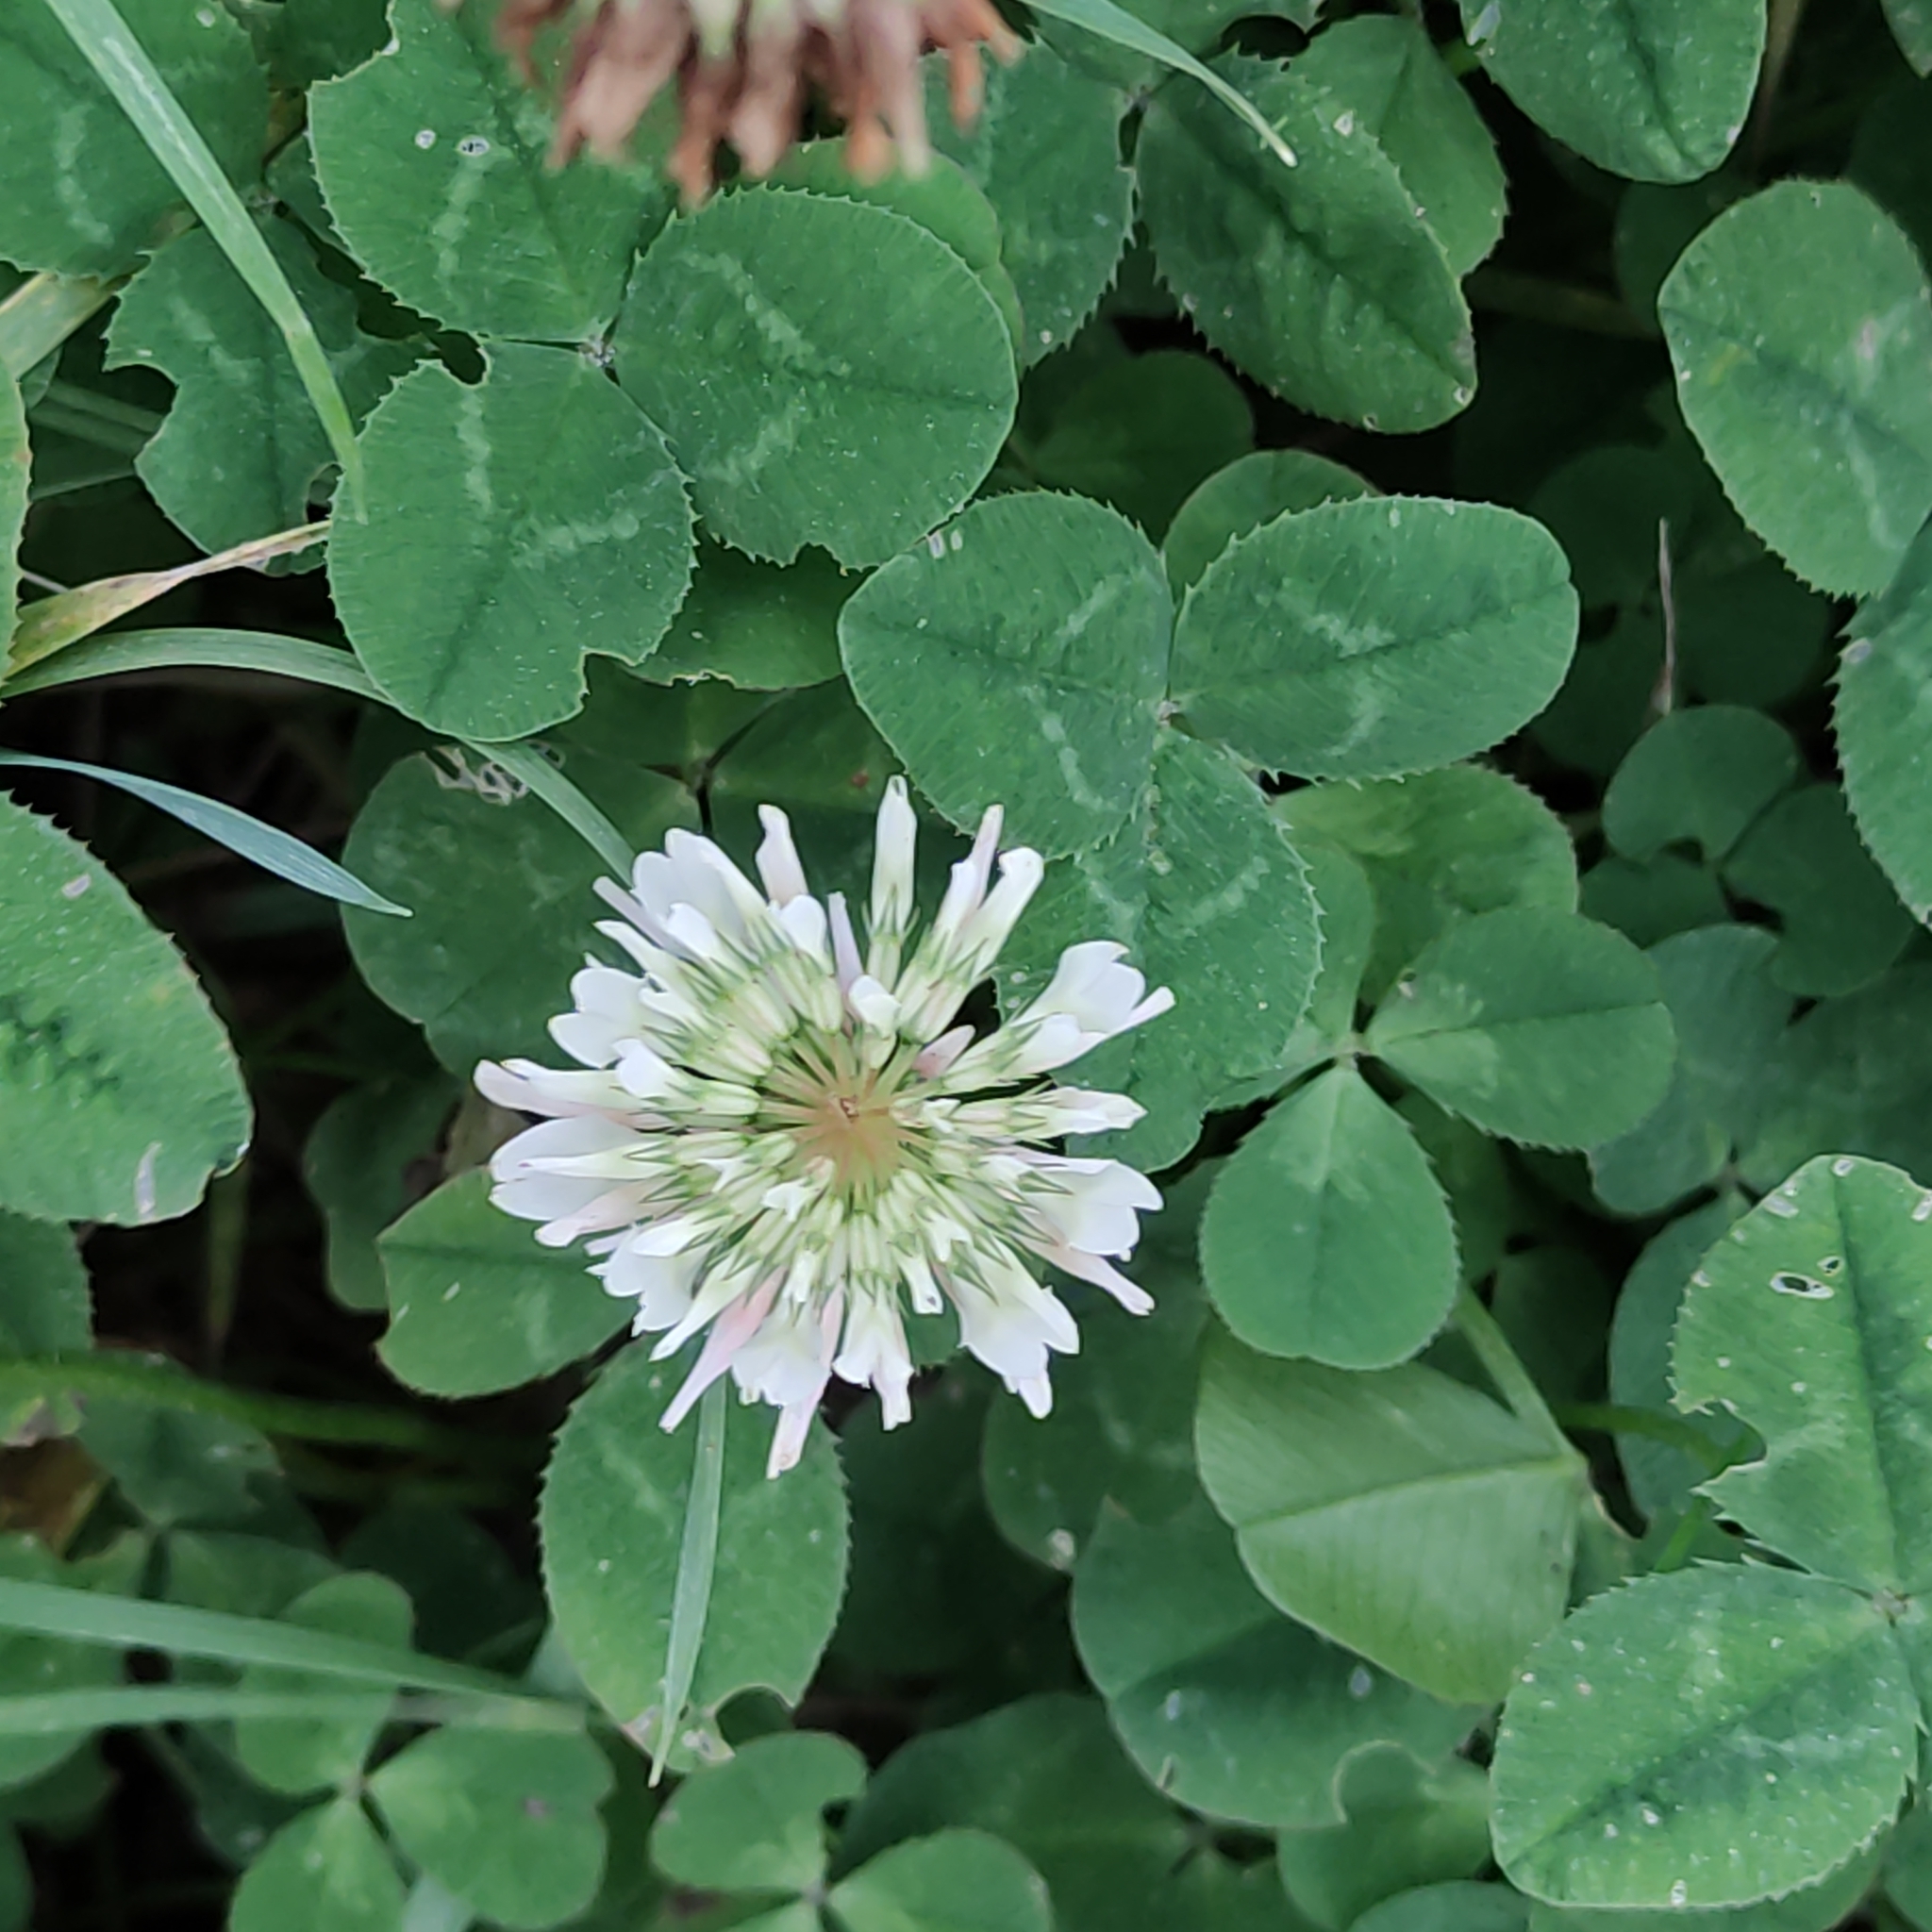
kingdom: Plantae
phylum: Tracheophyta
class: Magnoliopsida
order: Fabales
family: Fabaceae
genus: Trifolium
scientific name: Trifolium repens
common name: White clover
